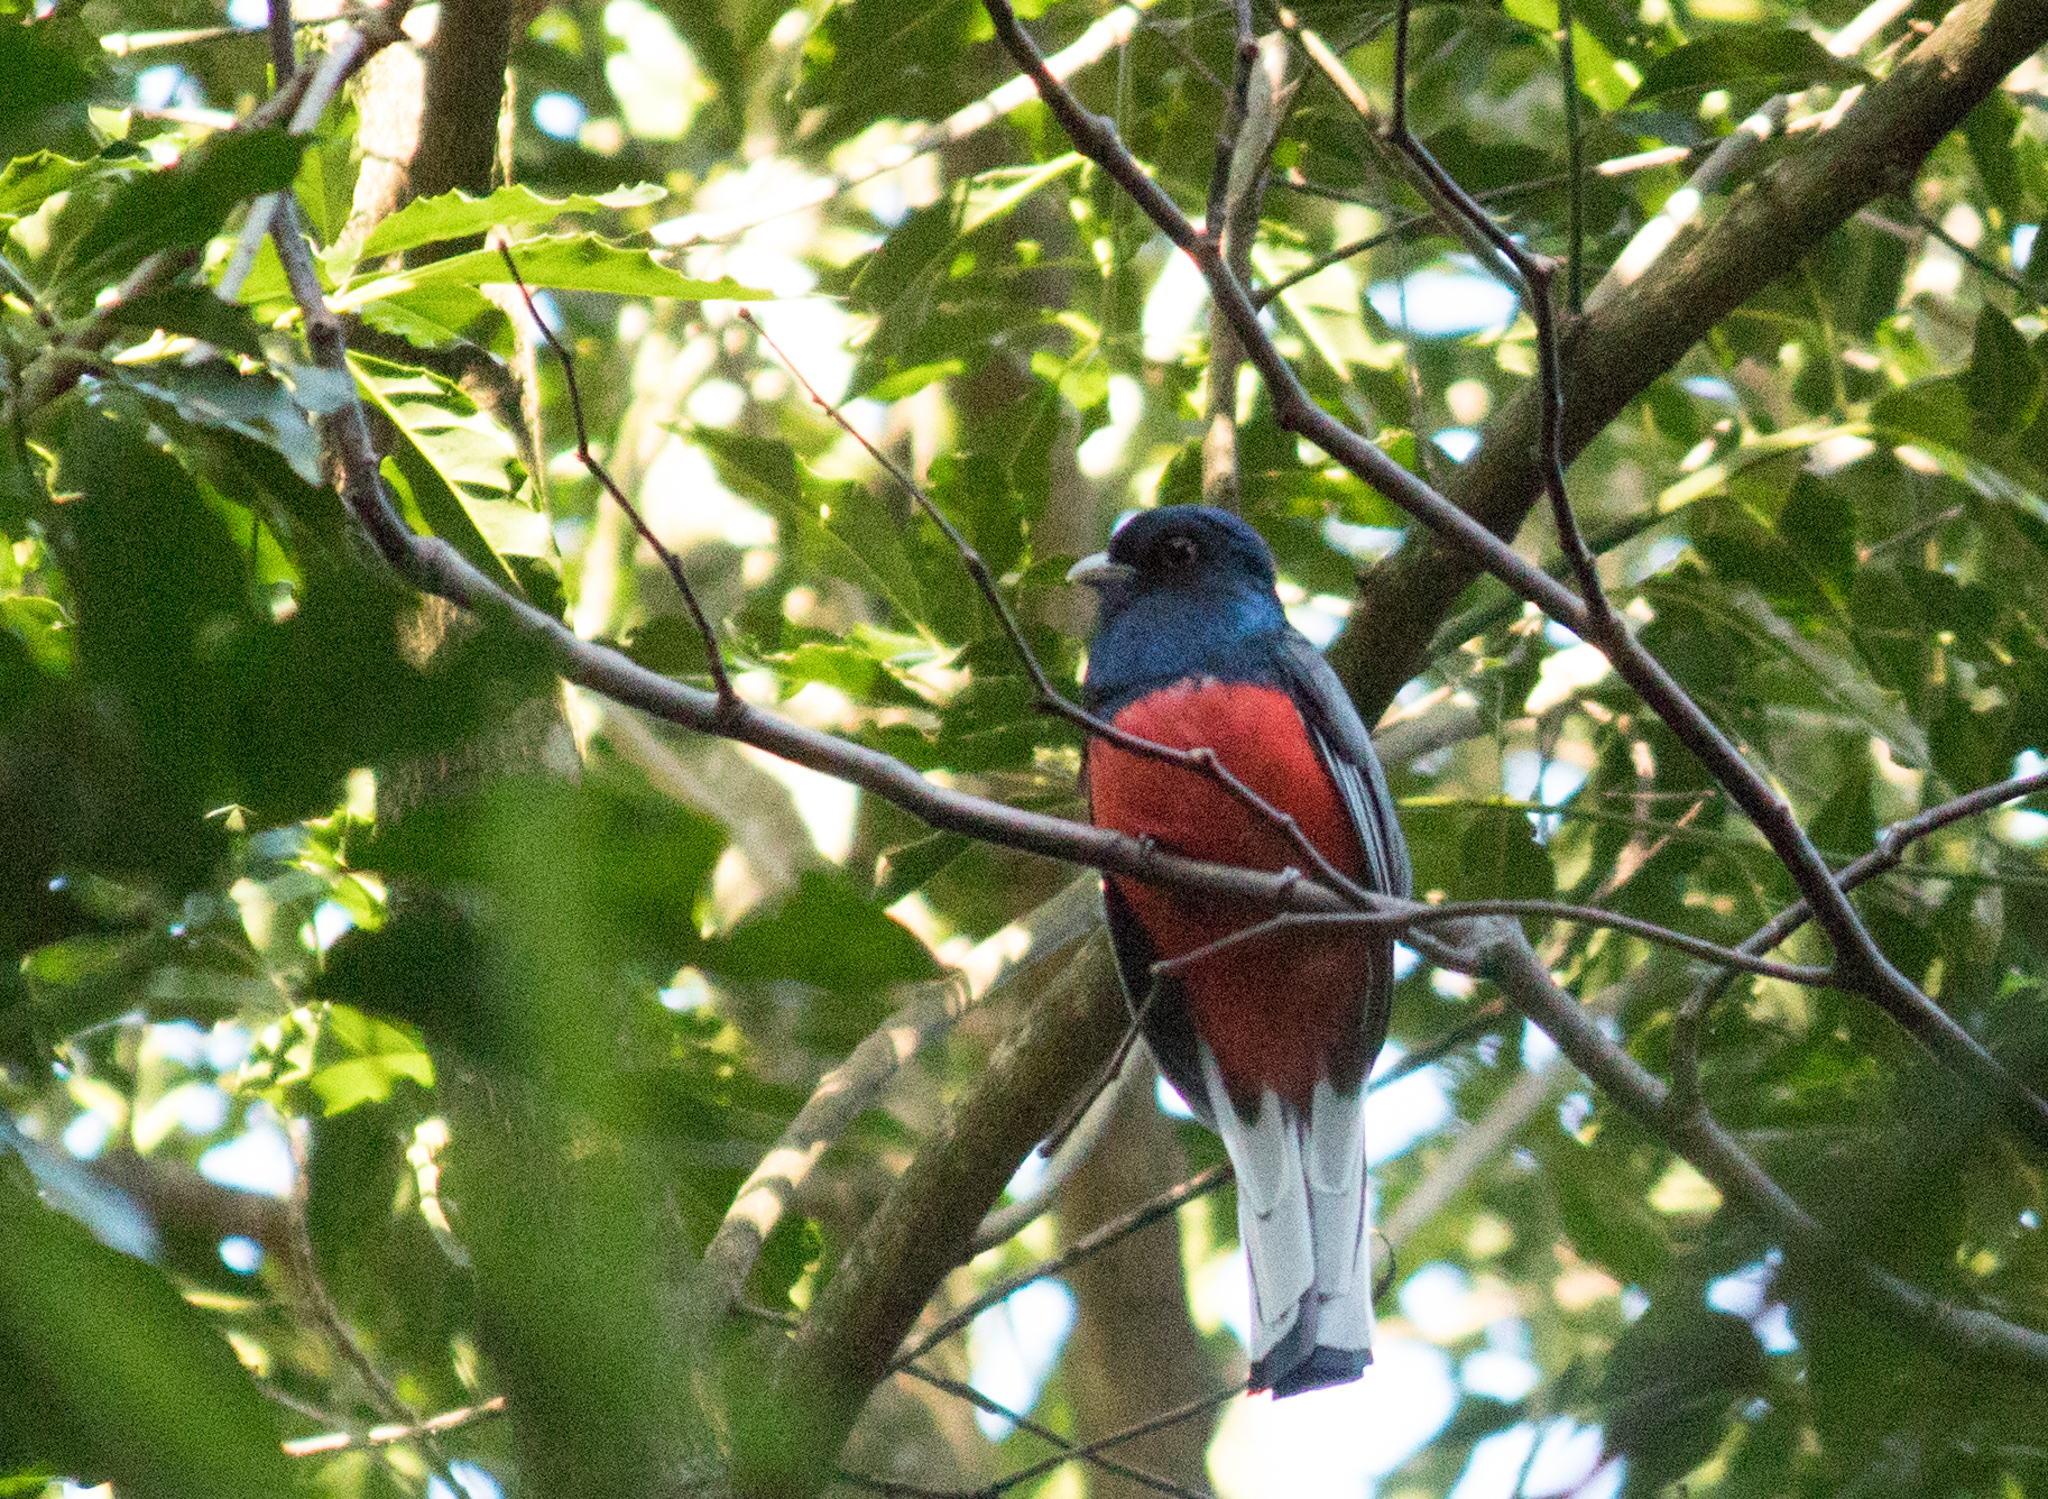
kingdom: Animalia
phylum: Chordata
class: Aves
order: Trogoniformes
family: Trogonidae
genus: Trogon
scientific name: Trogon surrucura
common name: Surucua trogon
